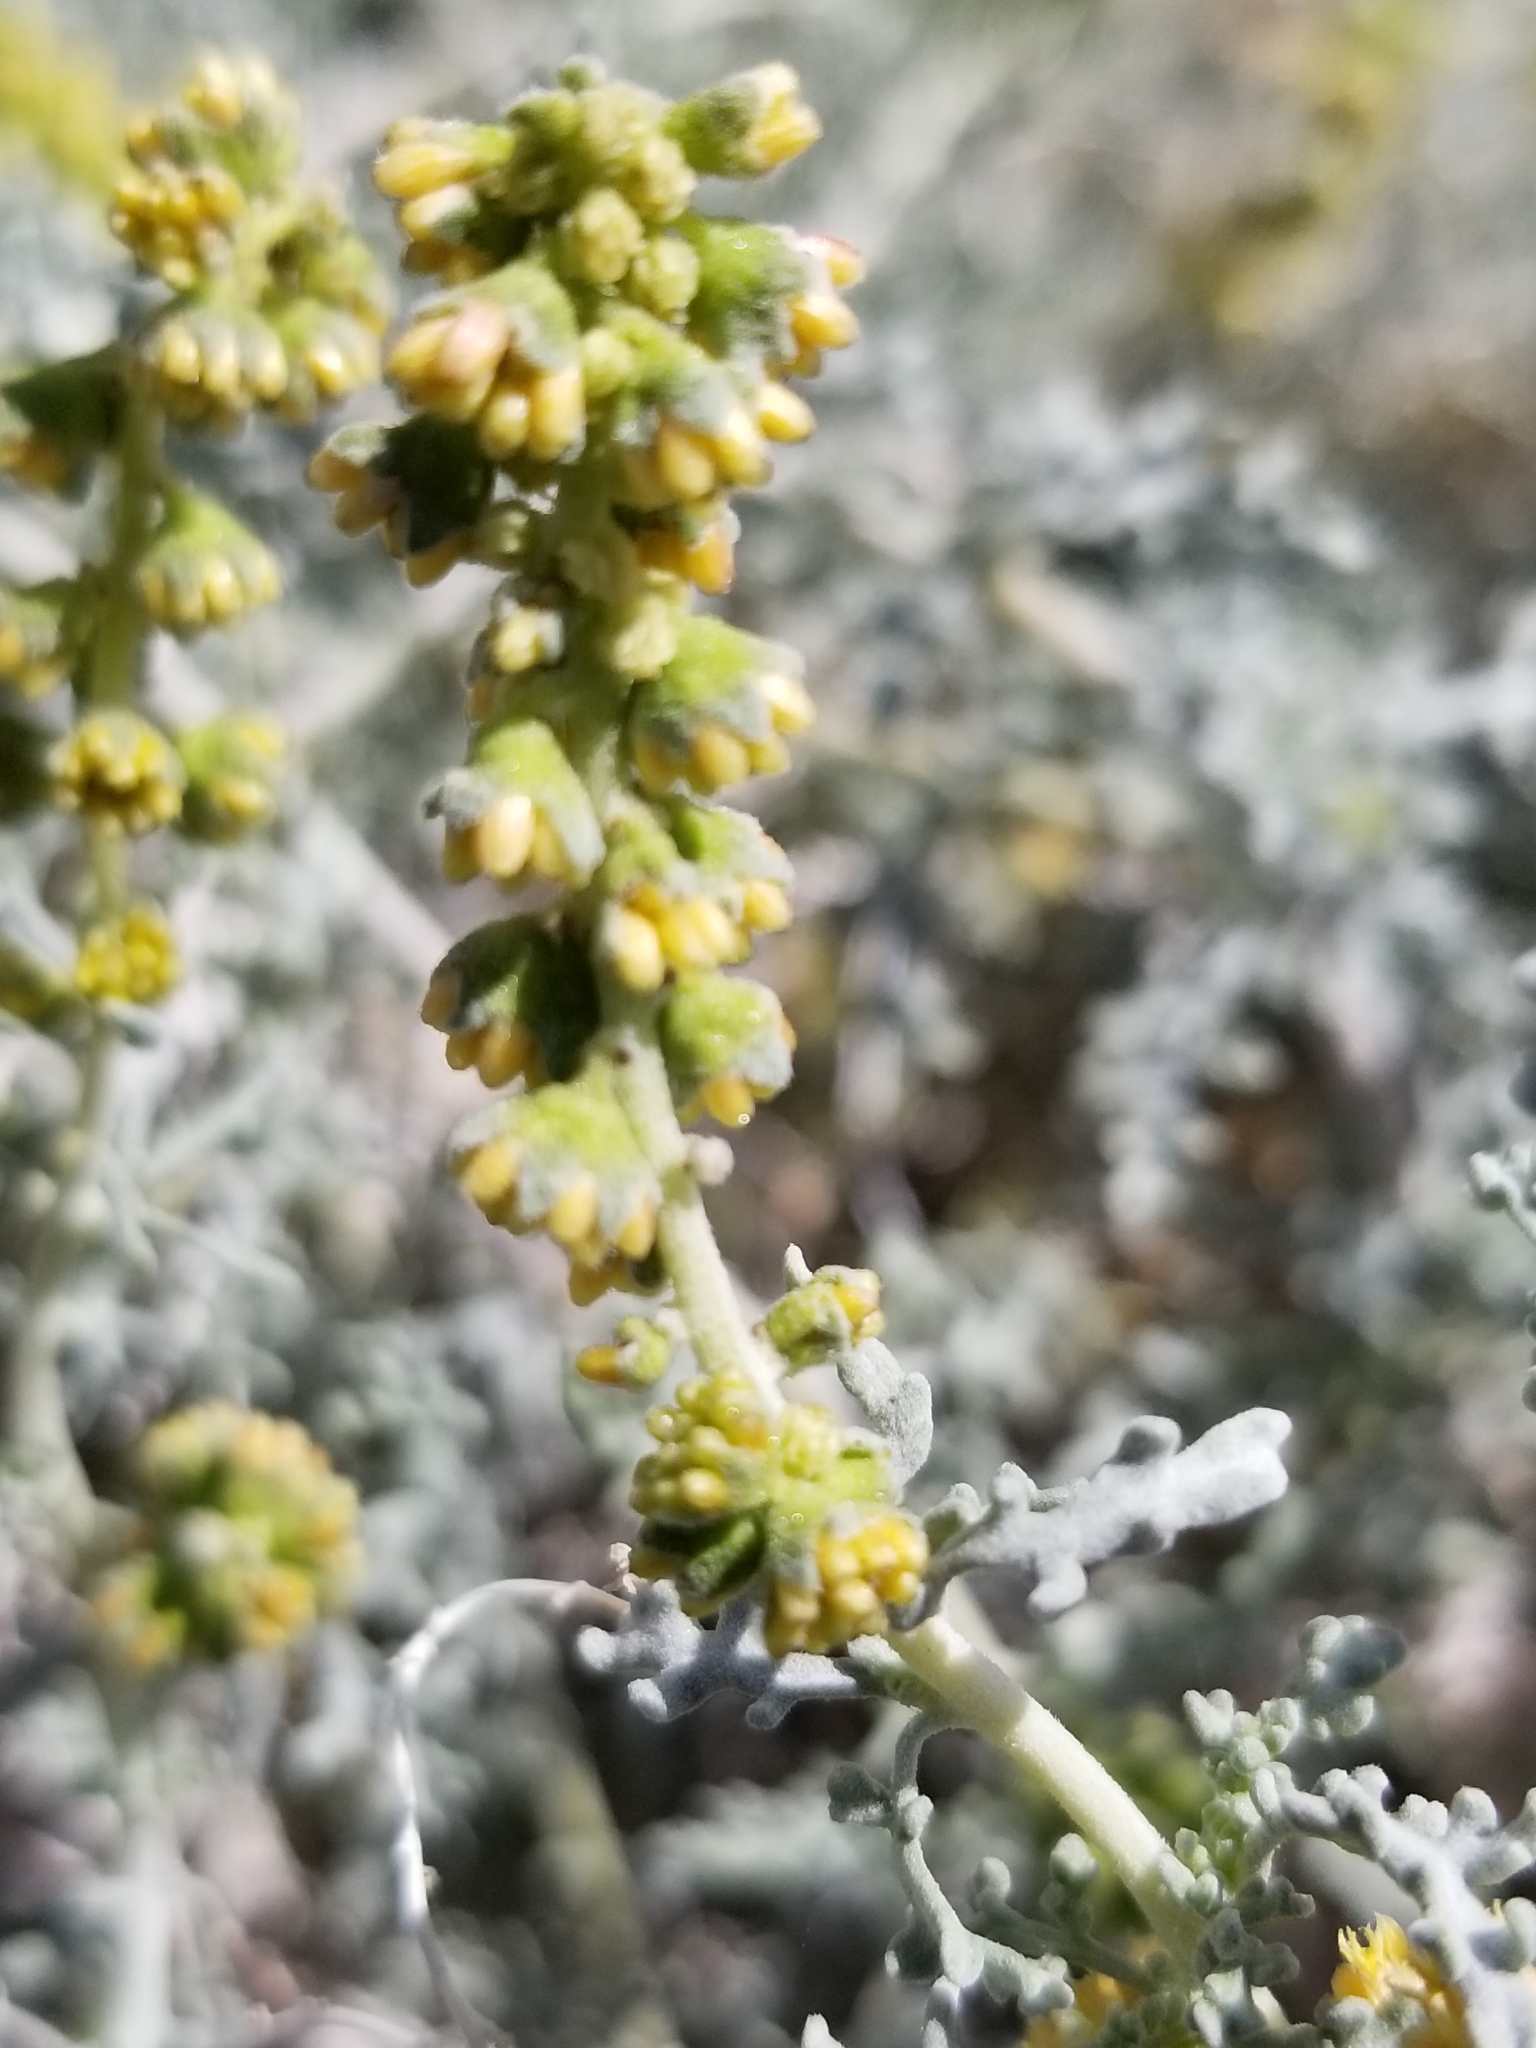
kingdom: Plantae
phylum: Tracheophyta
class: Magnoliopsida
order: Asterales
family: Asteraceae
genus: Ambrosia
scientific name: Ambrosia dumosa
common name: Bur-sage
